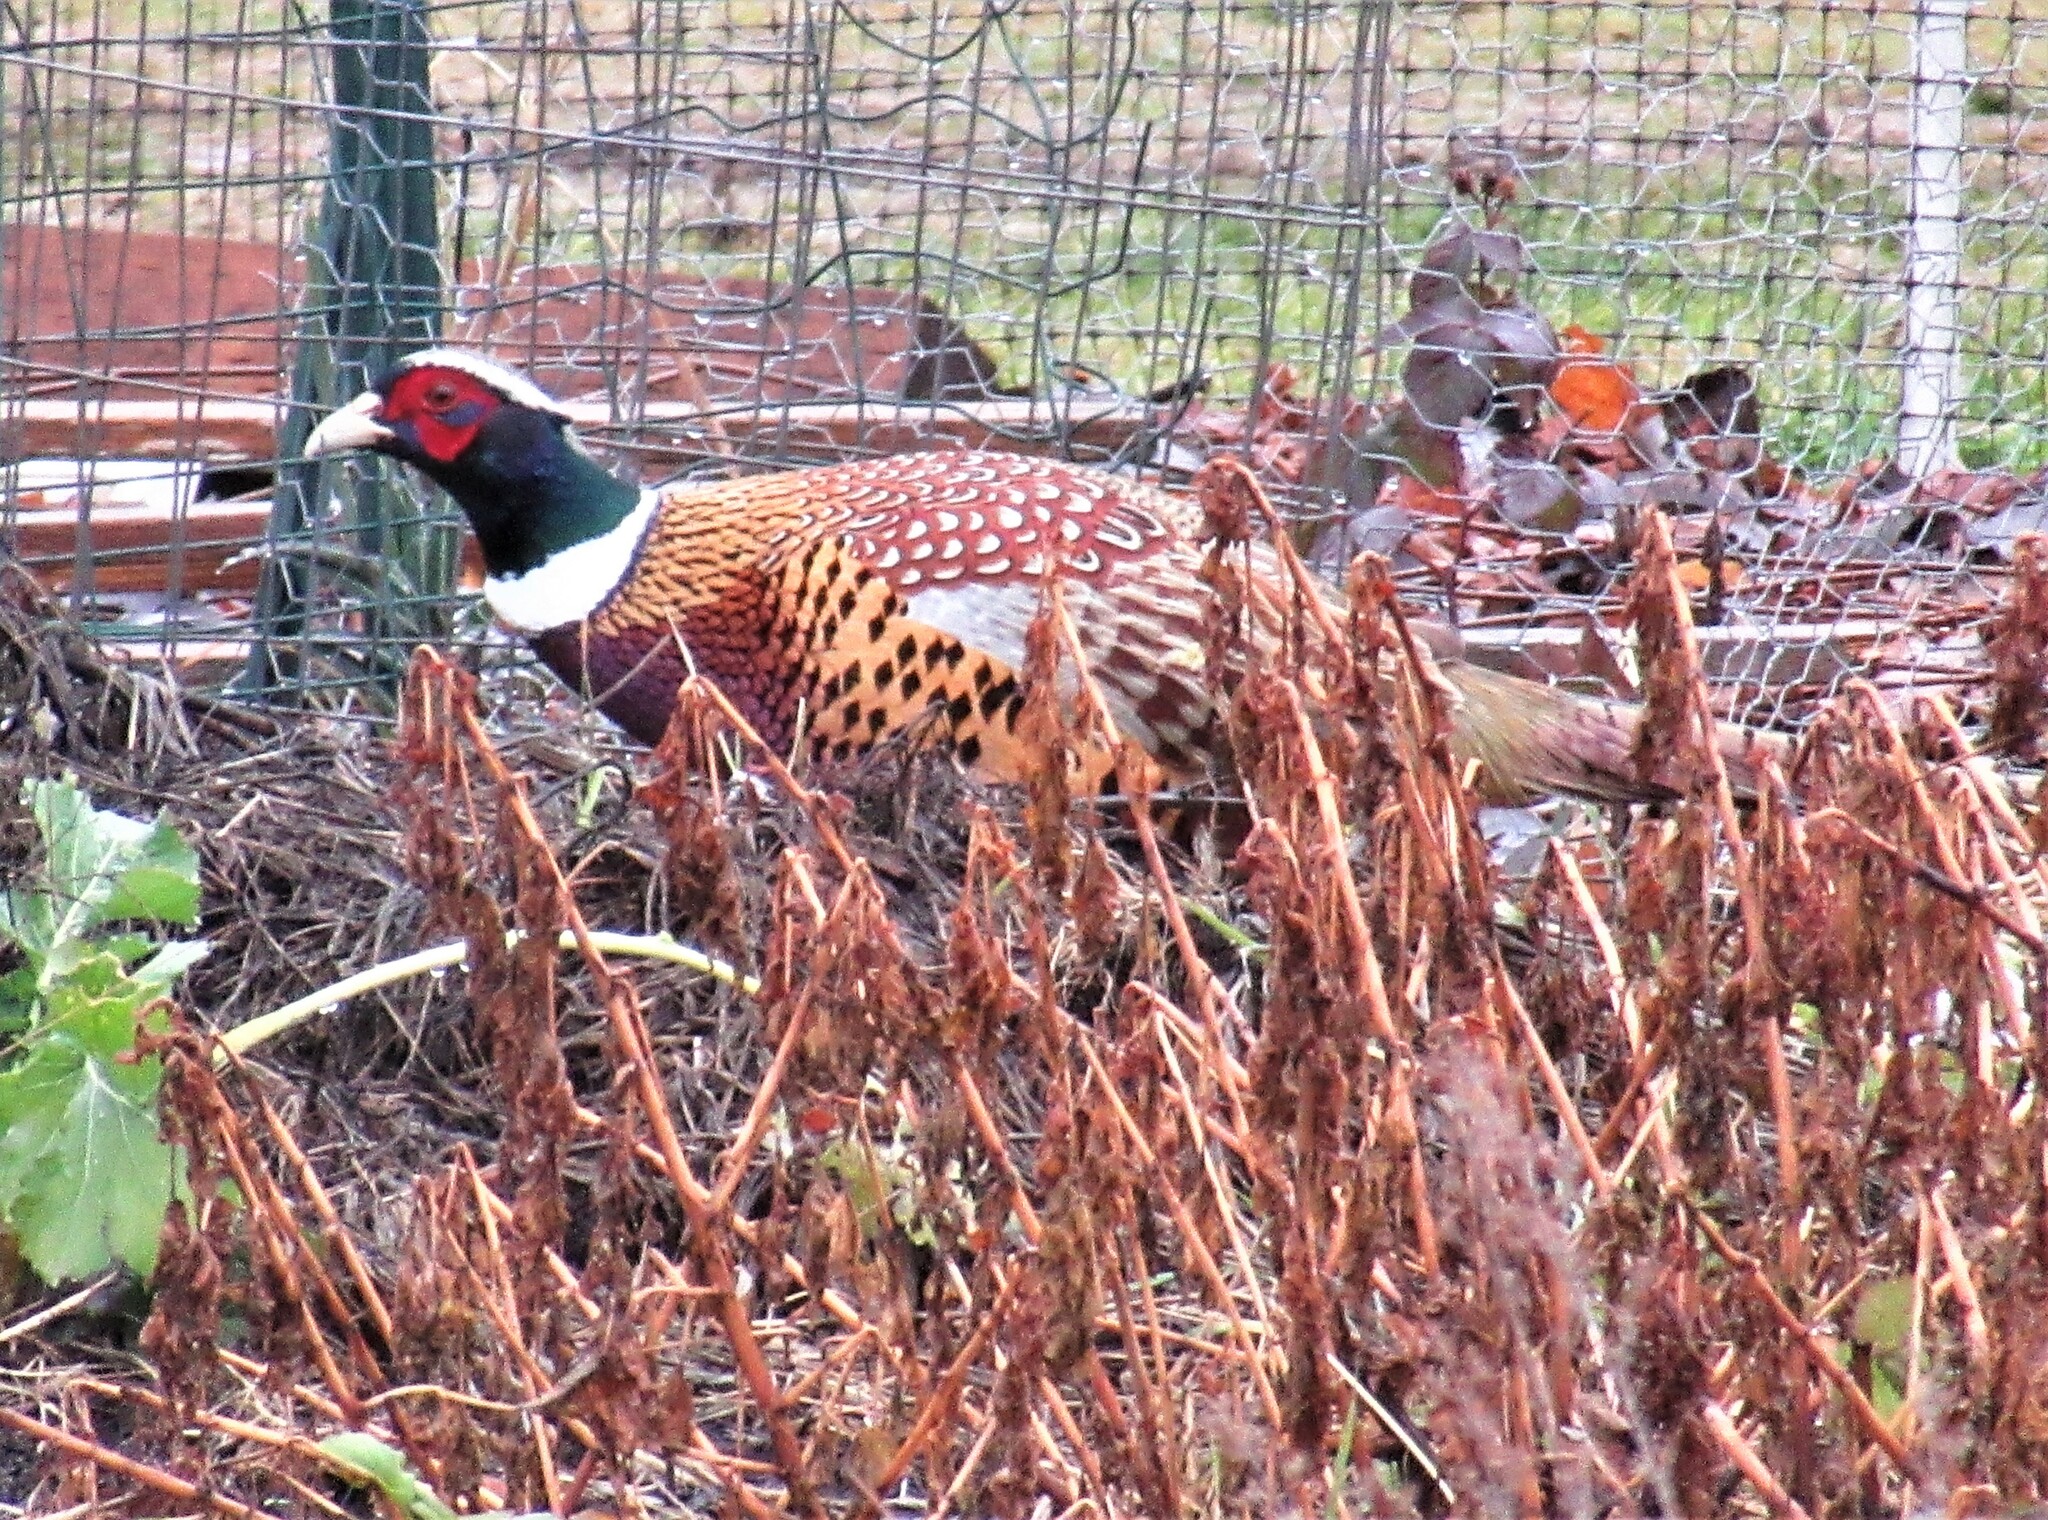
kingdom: Animalia
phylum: Chordata
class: Aves
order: Galliformes
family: Phasianidae
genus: Phasianus
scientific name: Phasianus colchicus
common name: Common pheasant
